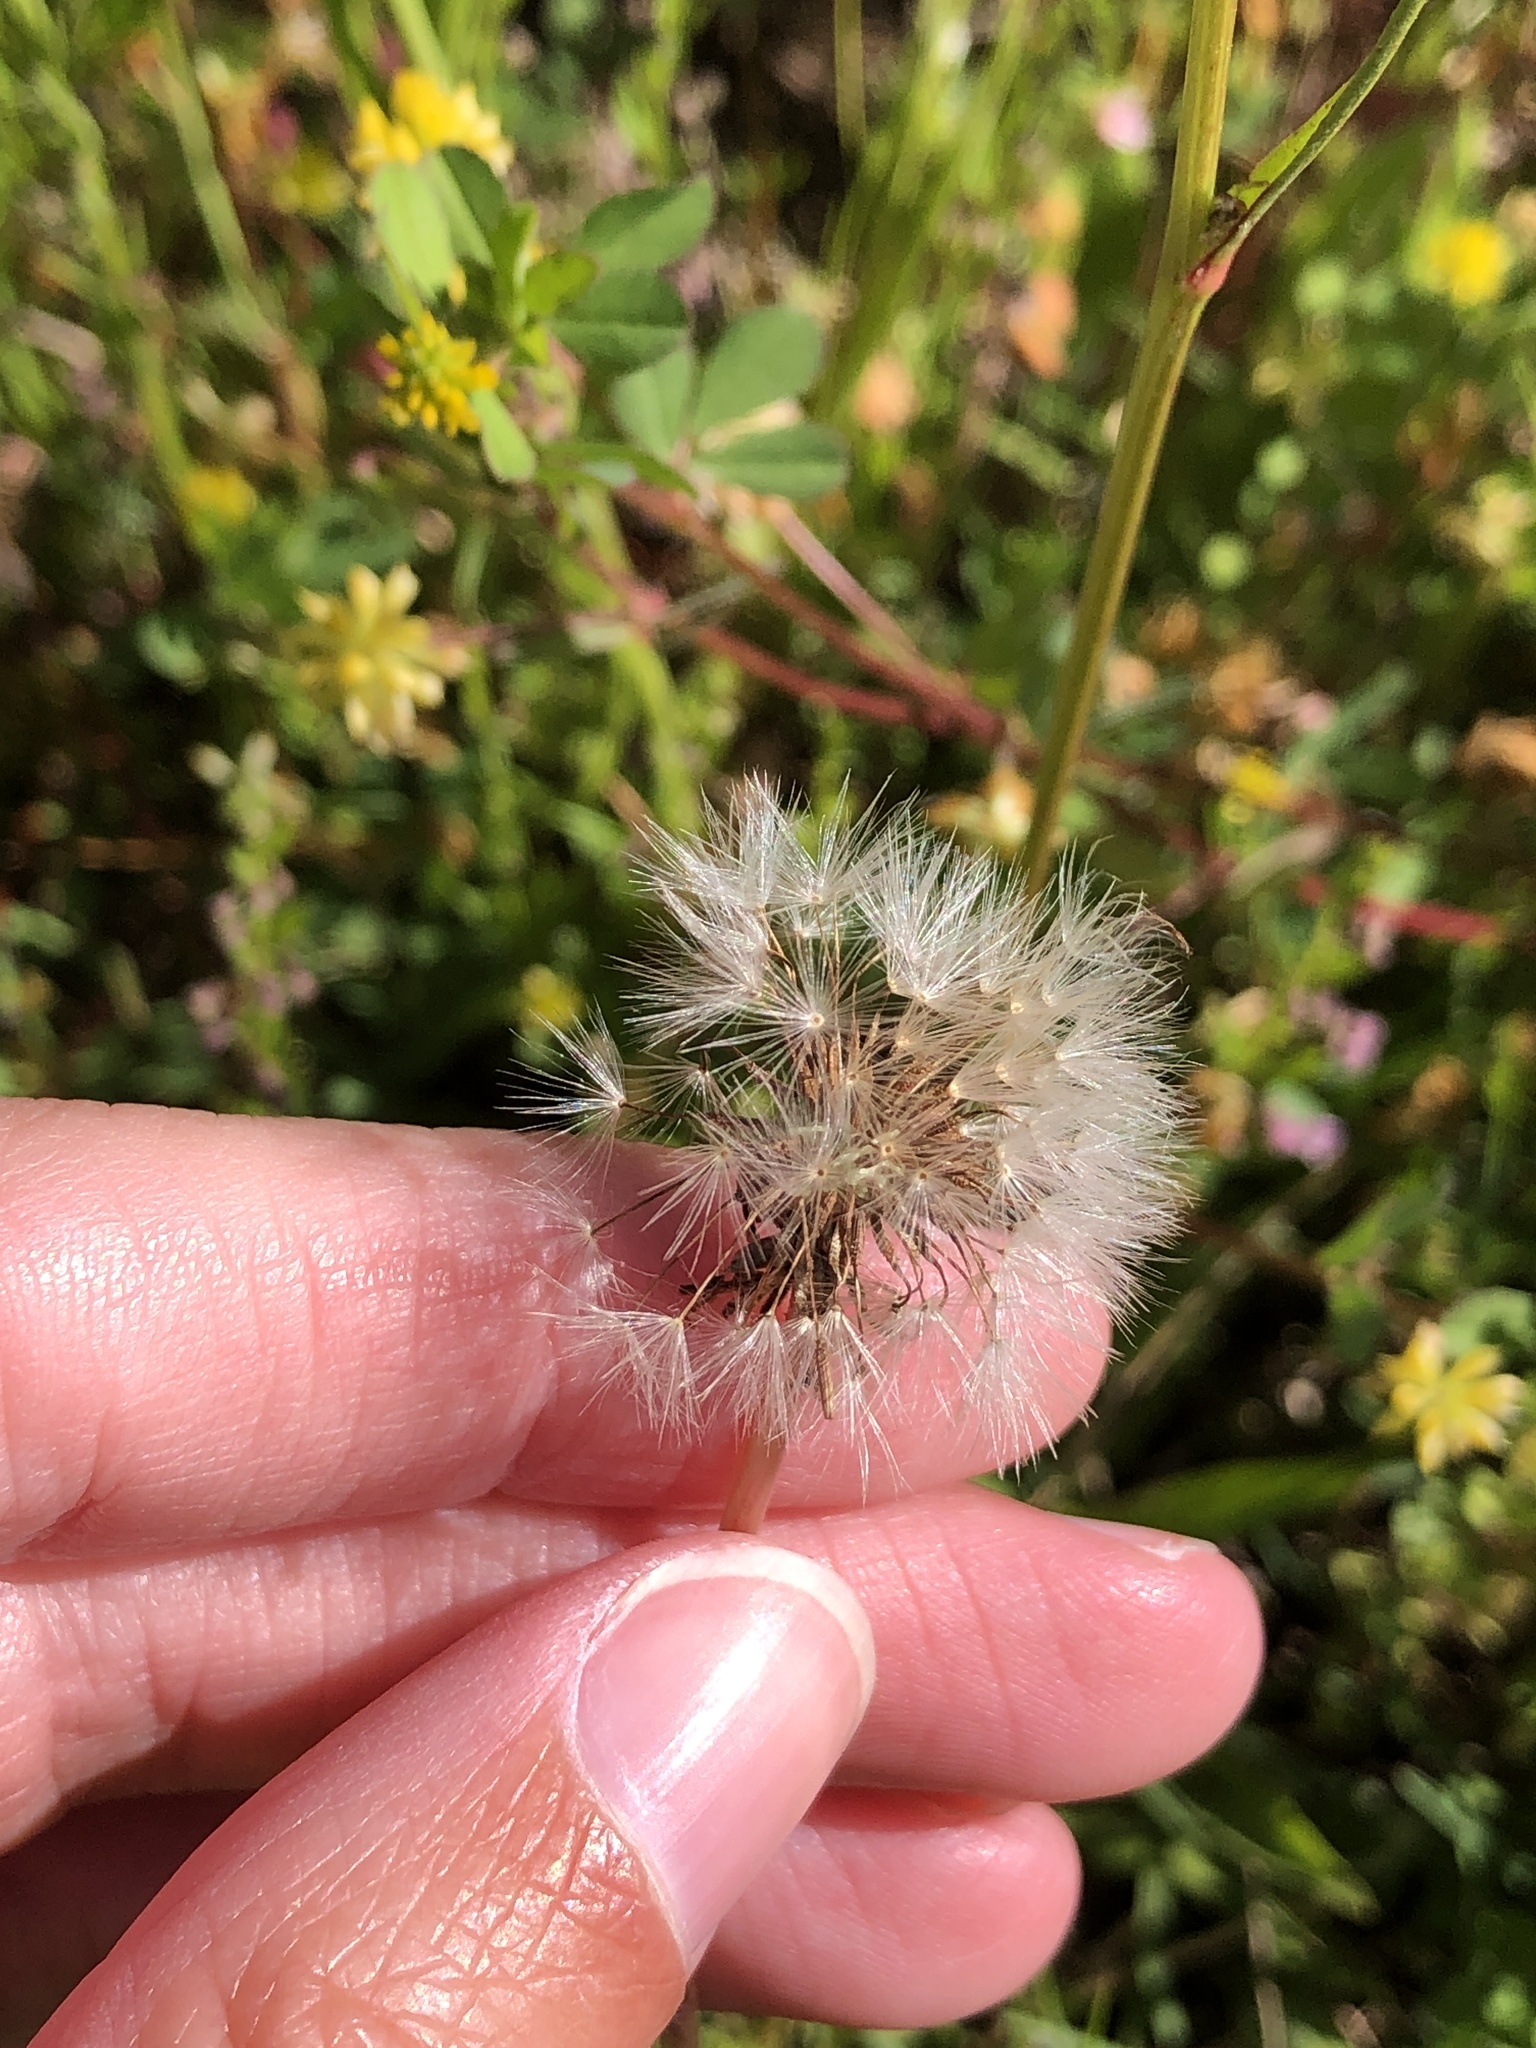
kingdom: Plantae
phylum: Tracheophyta
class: Magnoliopsida
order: Asterales
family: Asteraceae
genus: Taraxacum
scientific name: Taraxacum officinale
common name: Common dandelion
